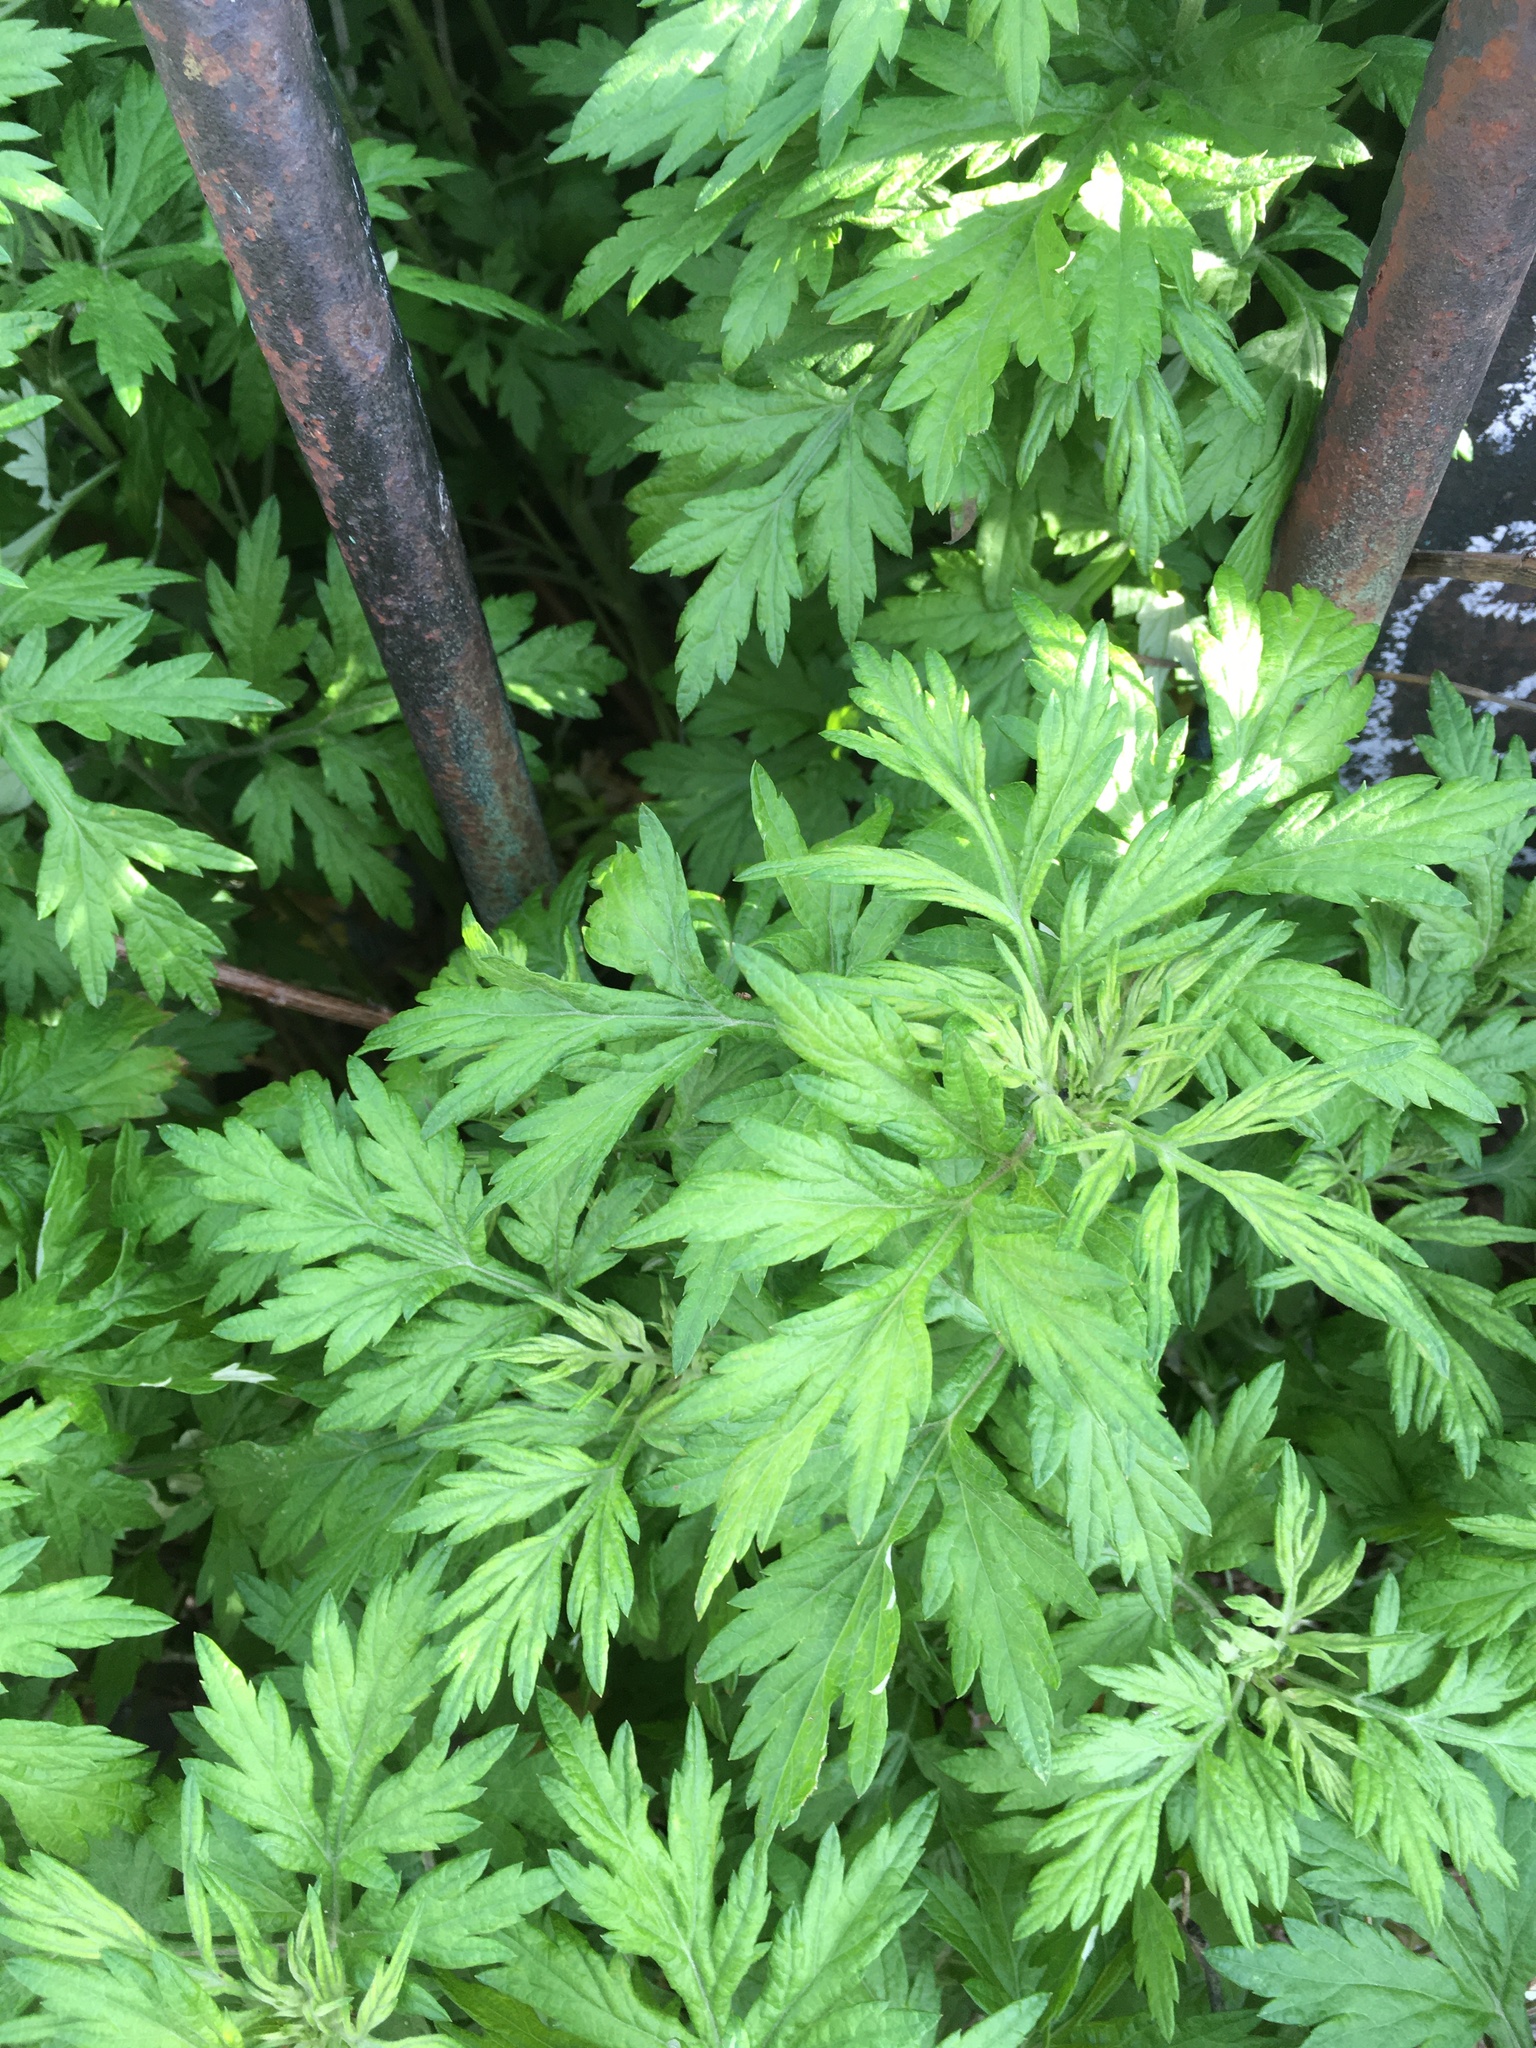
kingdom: Plantae
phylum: Tracheophyta
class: Magnoliopsida
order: Asterales
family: Asteraceae
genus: Artemisia
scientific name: Artemisia vulgaris
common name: Mugwort
